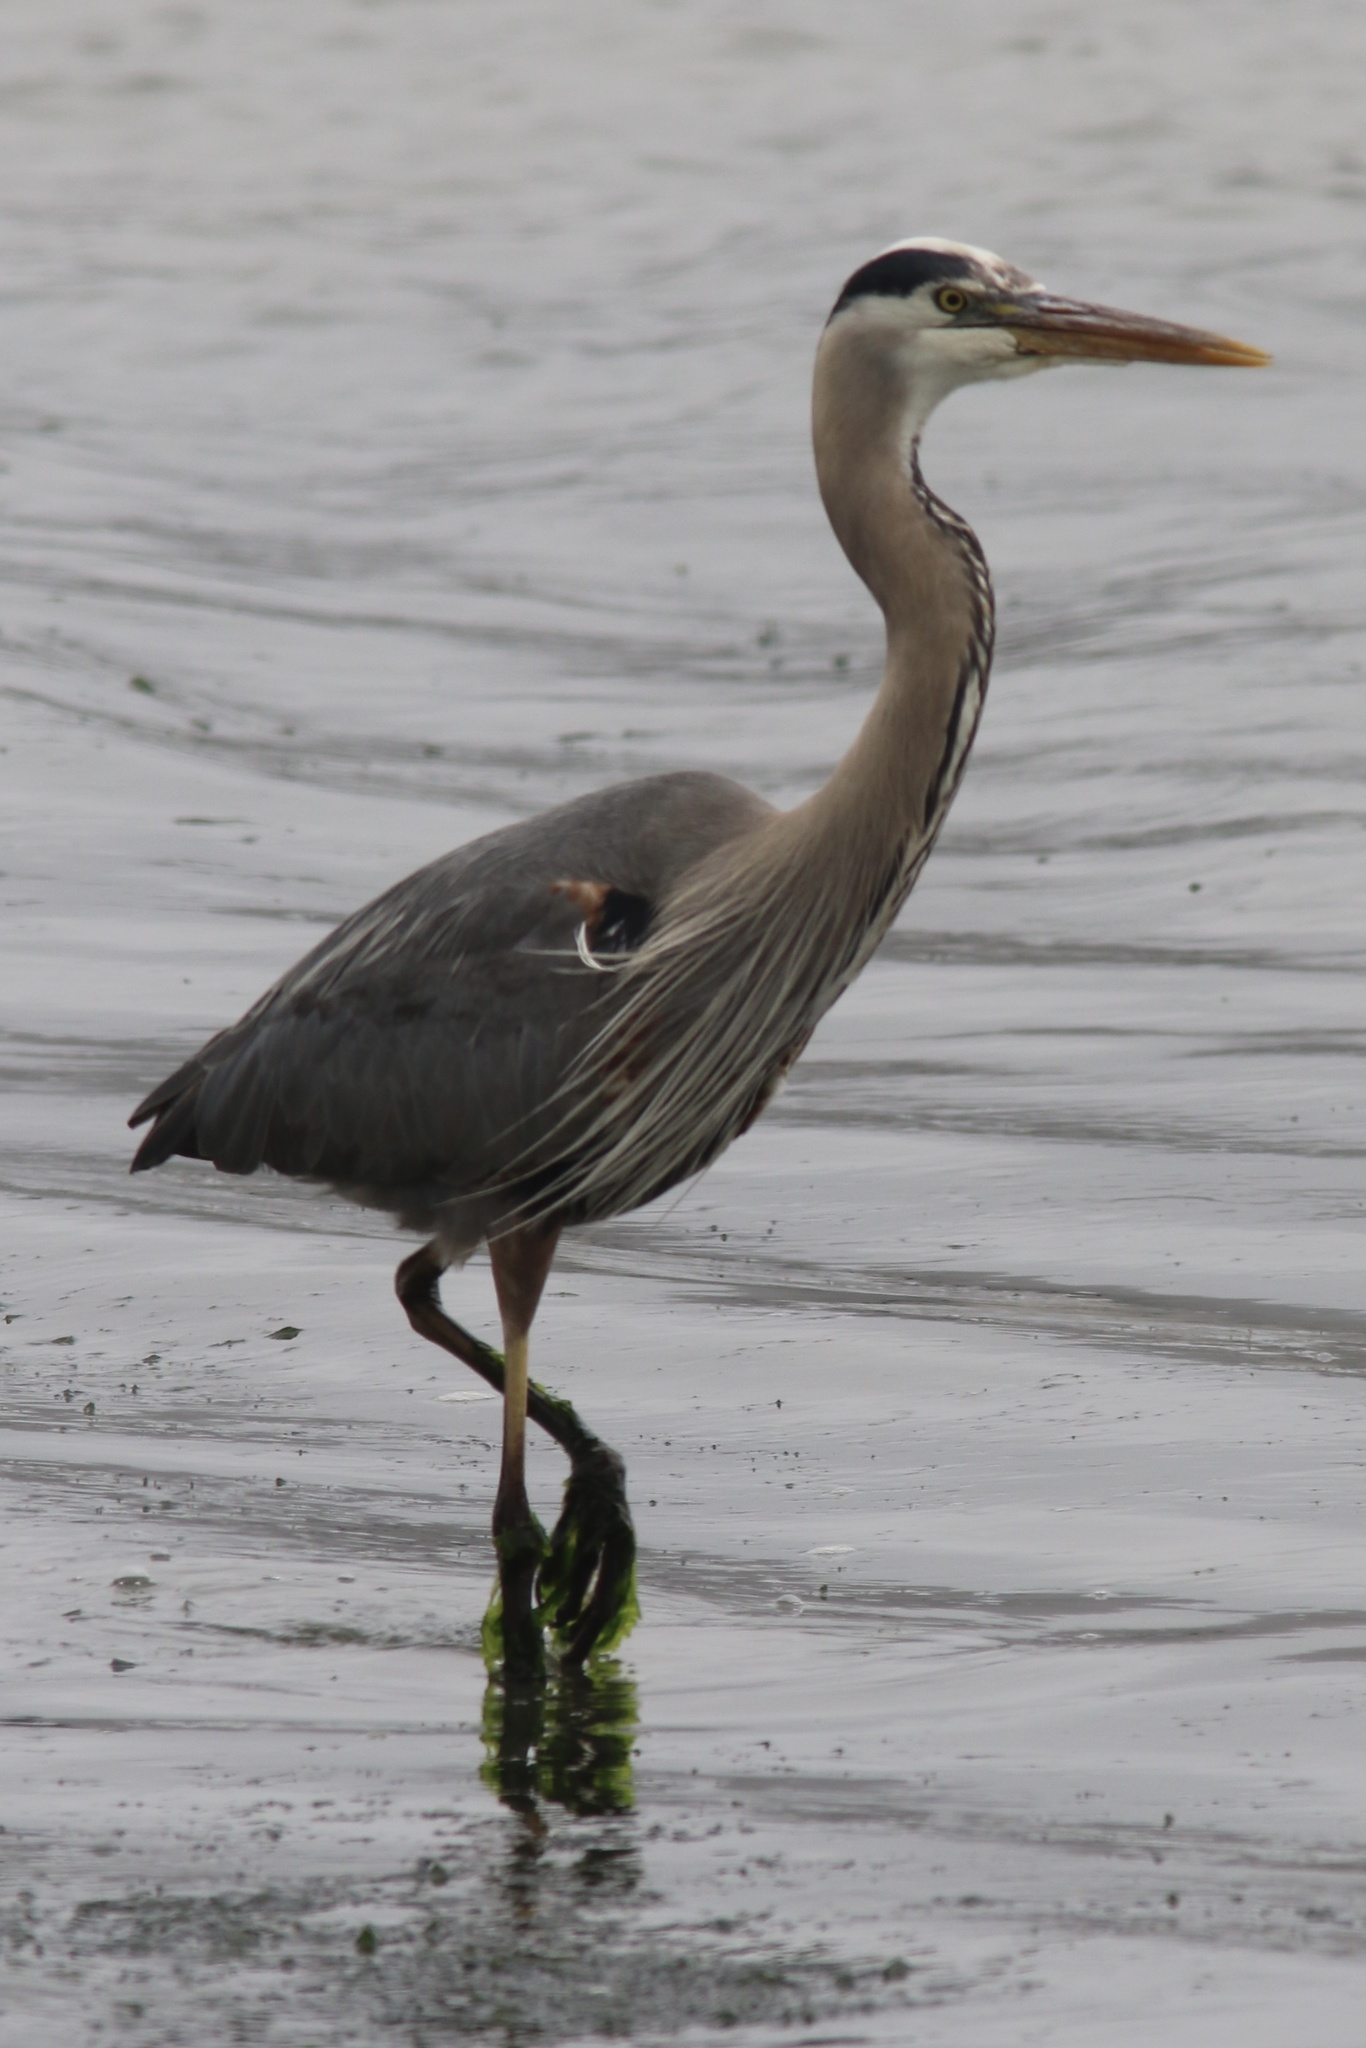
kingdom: Animalia
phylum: Chordata
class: Aves
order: Pelecaniformes
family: Ardeidae
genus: Ardea
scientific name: Ardea herodias
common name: Great blue heron
